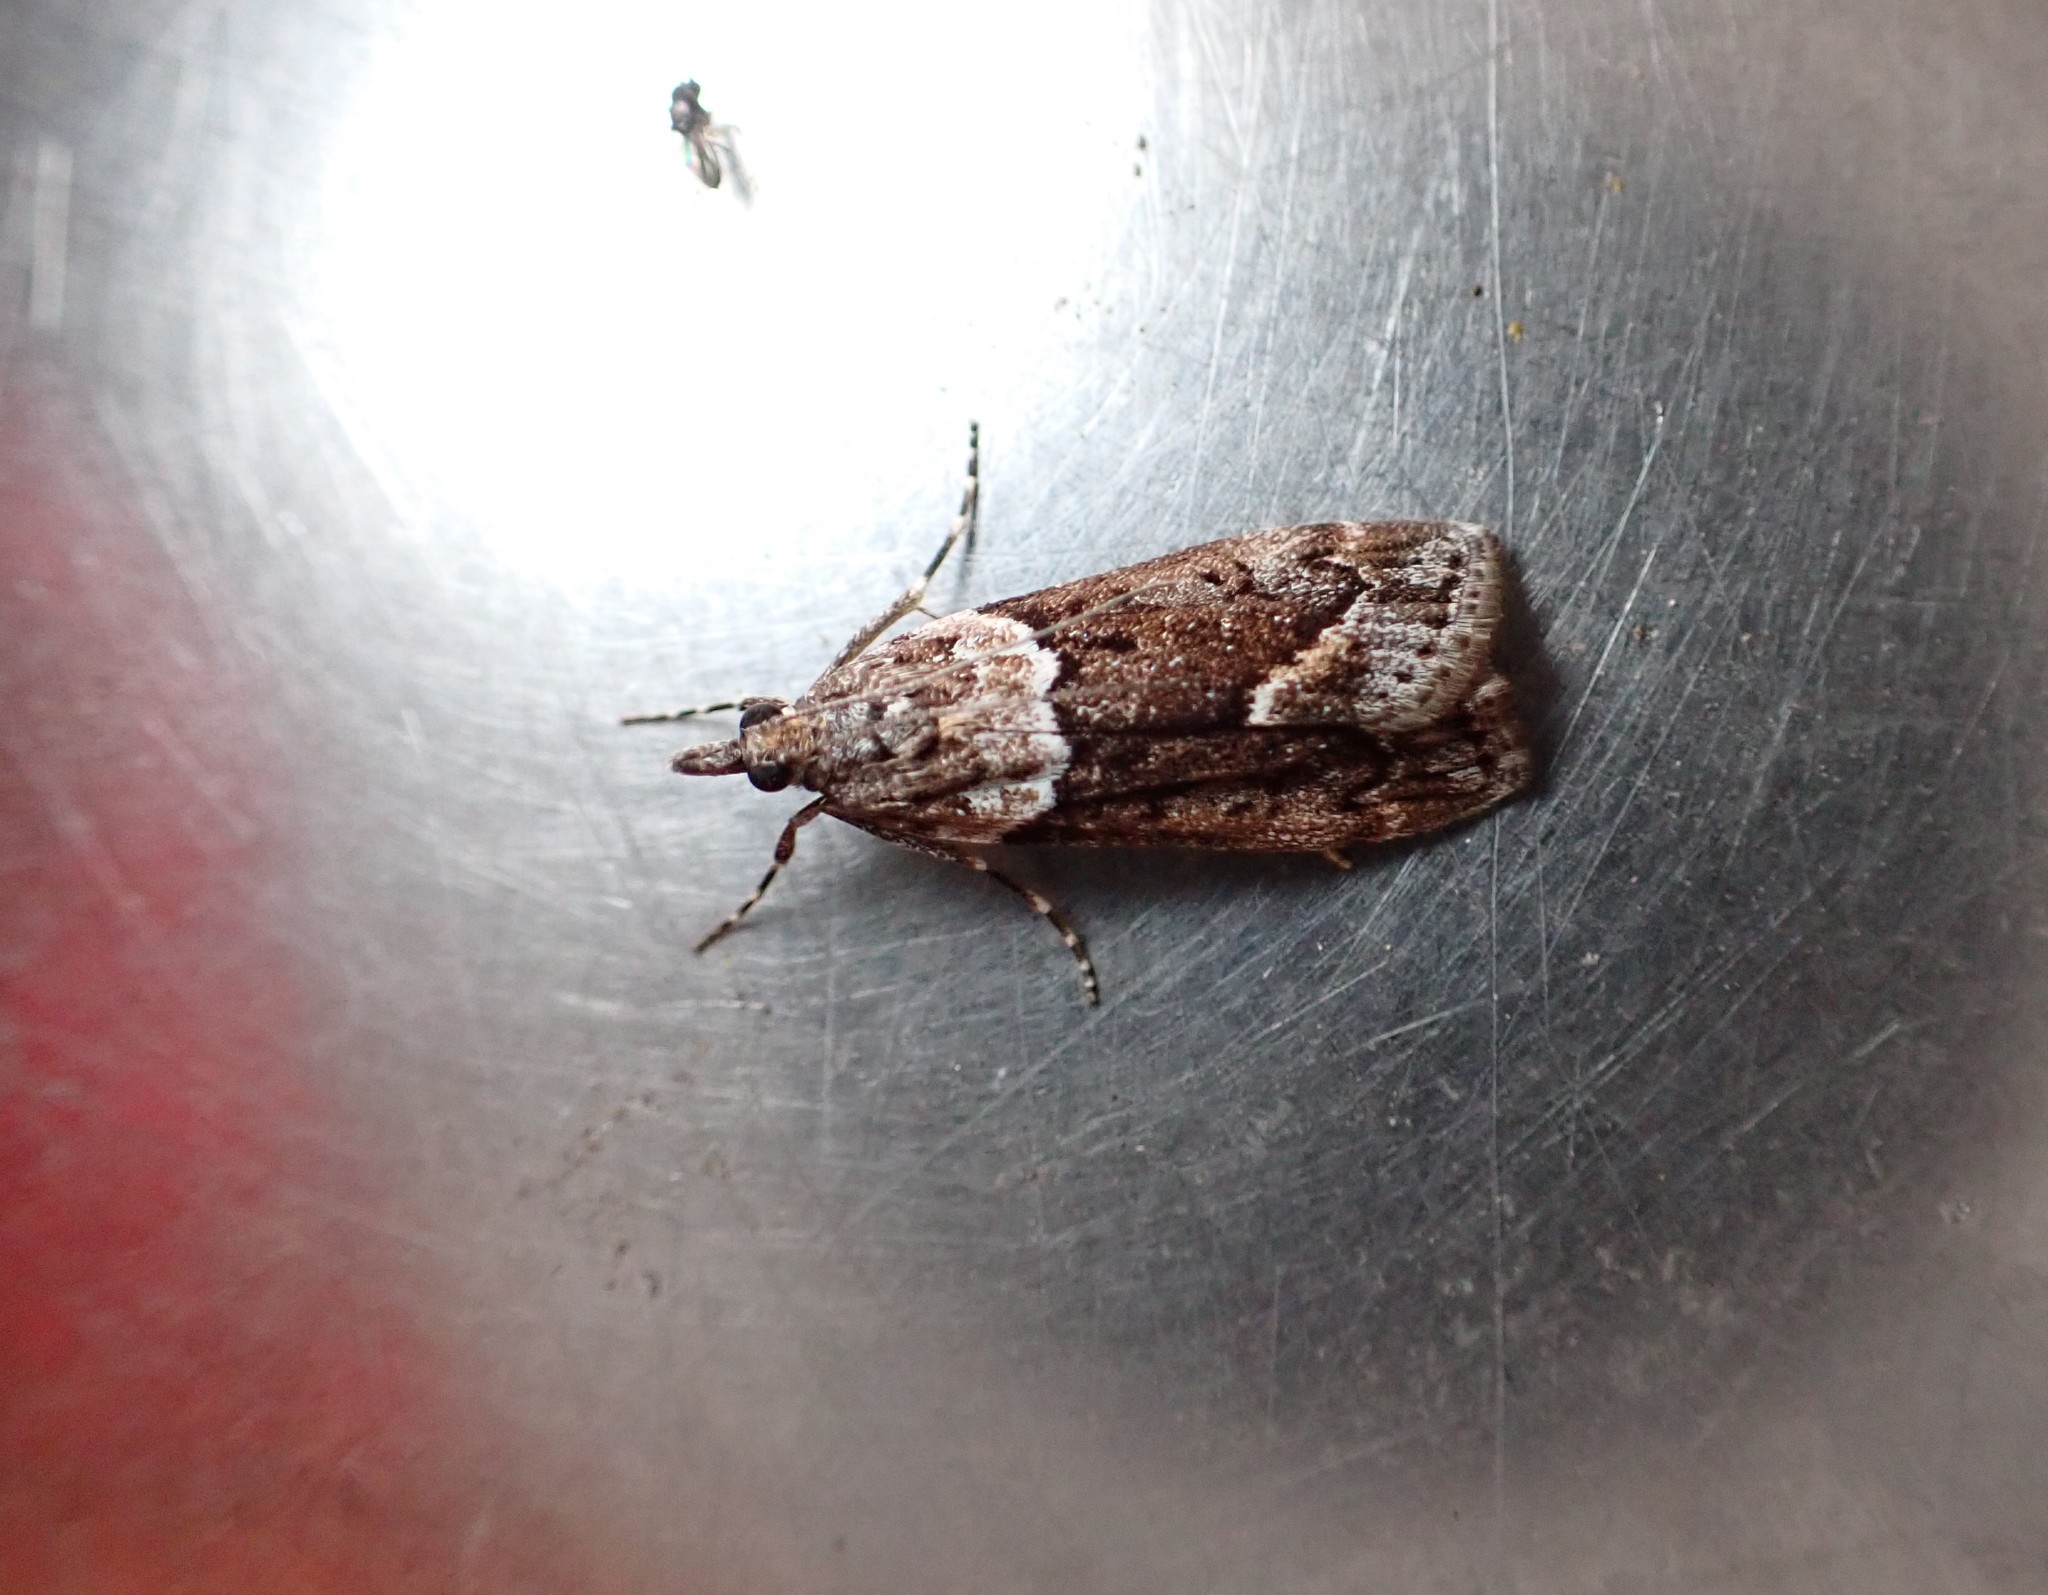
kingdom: Animalia
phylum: Arthropoda
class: Insecta
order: Lepidoptera
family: Crambidae
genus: Eudonia
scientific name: Eudonia submarginalis
